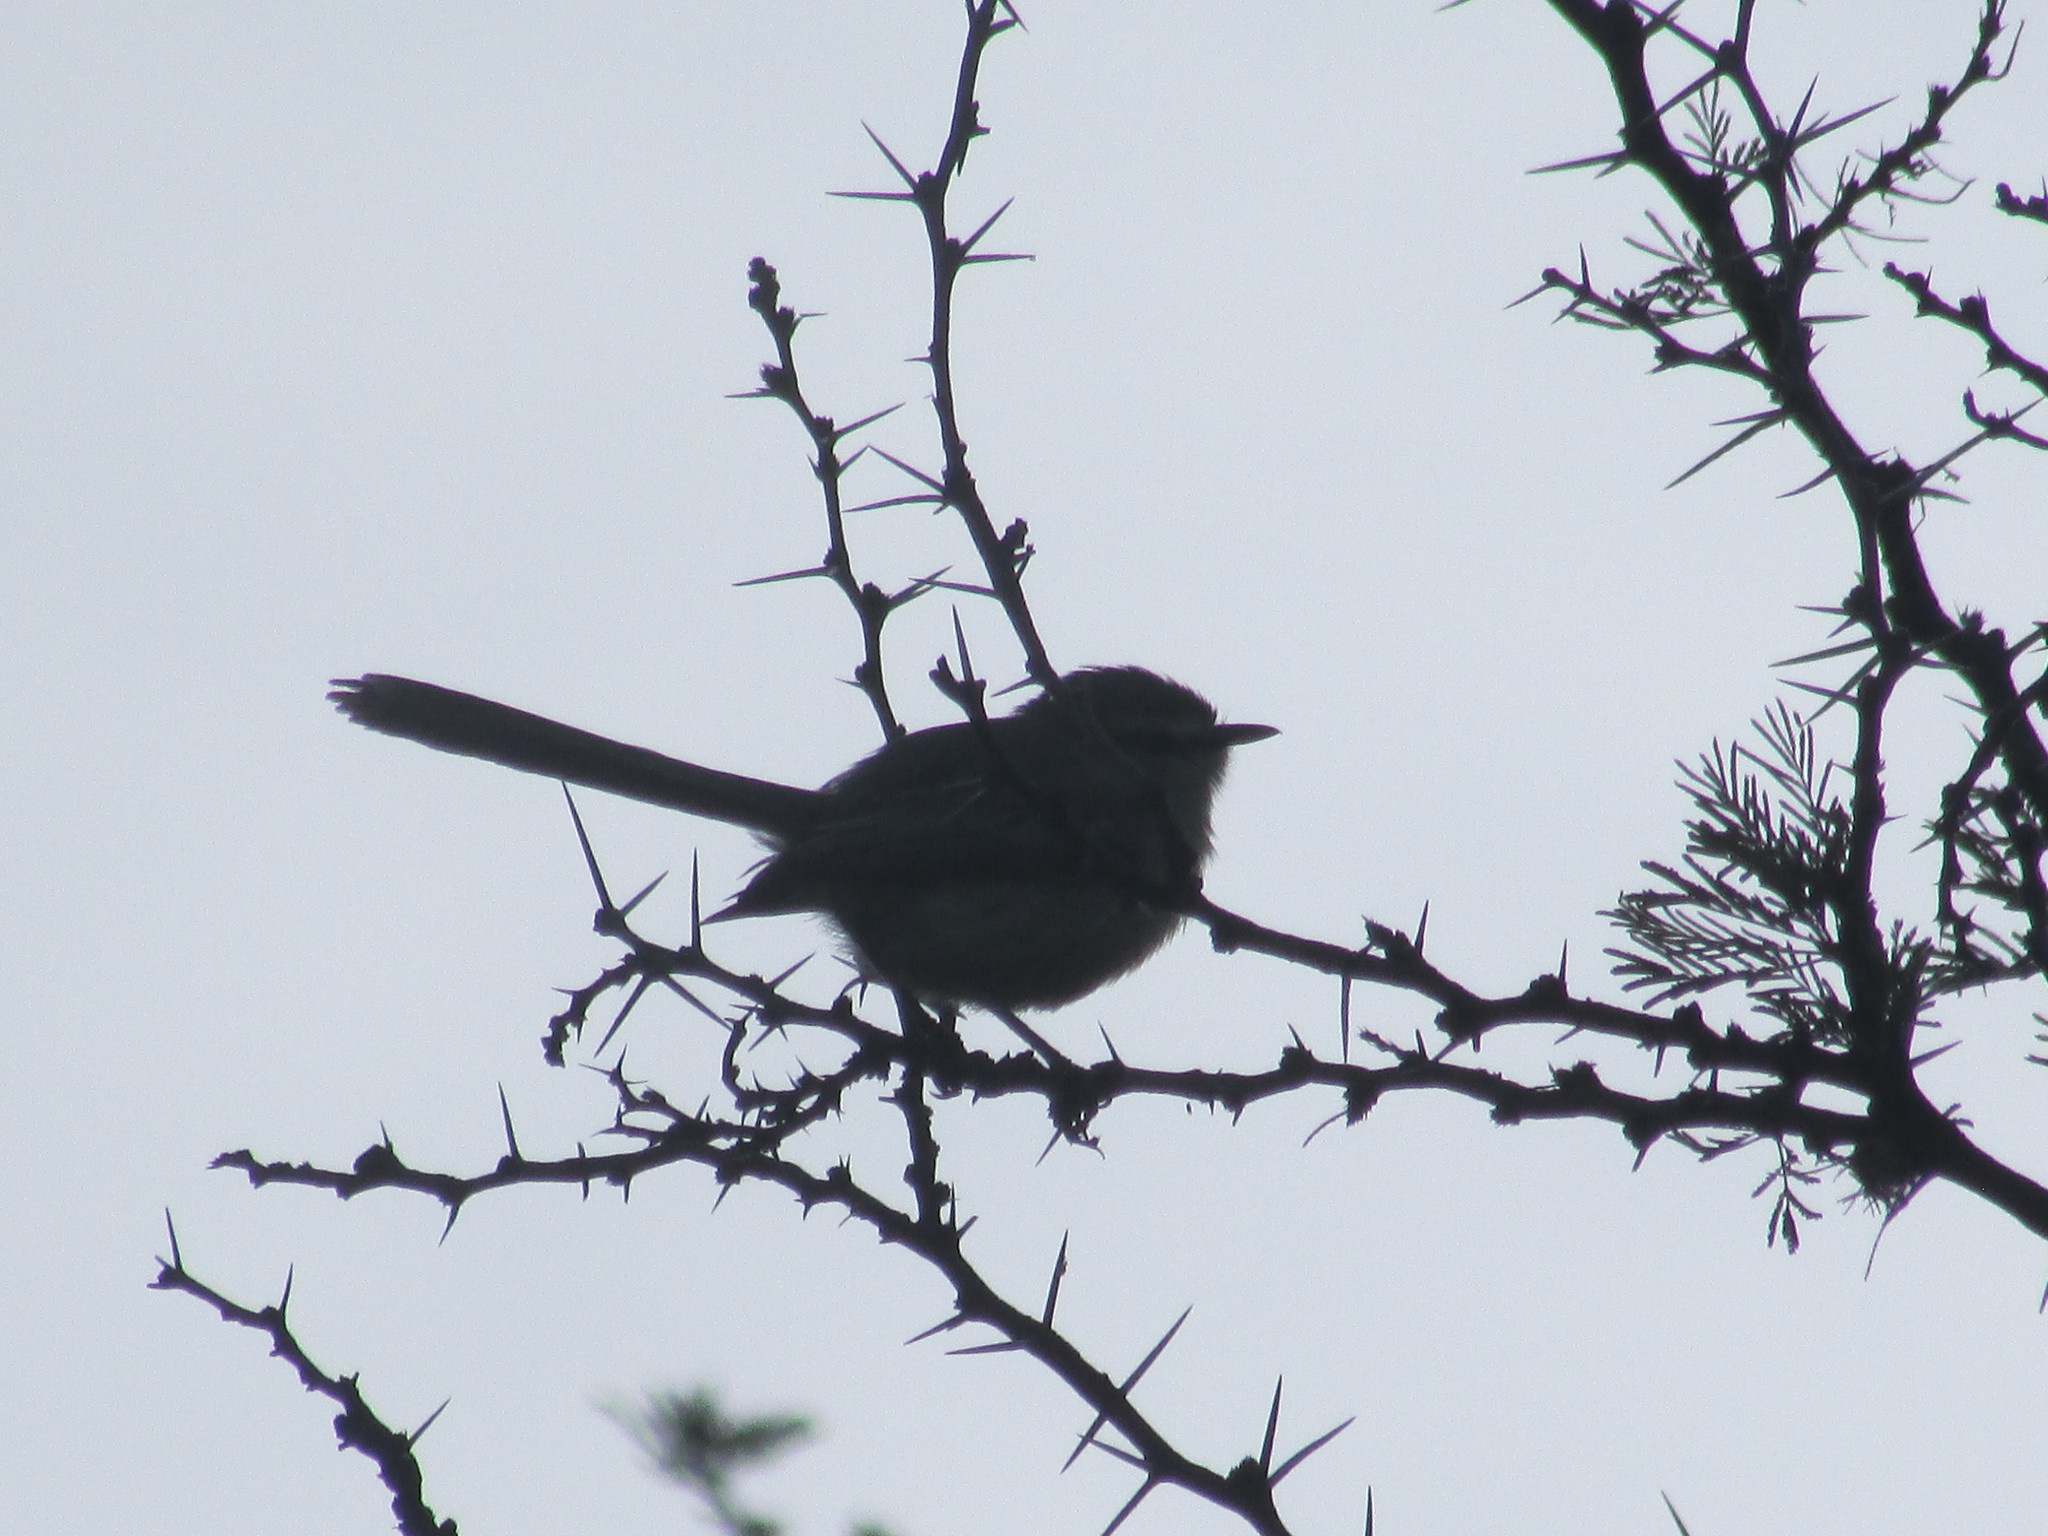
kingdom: Animalia
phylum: Chordata
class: Aves
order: Passeriformes
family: Tyrannidae
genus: Stigmatura
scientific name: Stigmatura budytoides
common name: Greater wagtail-tyrant
